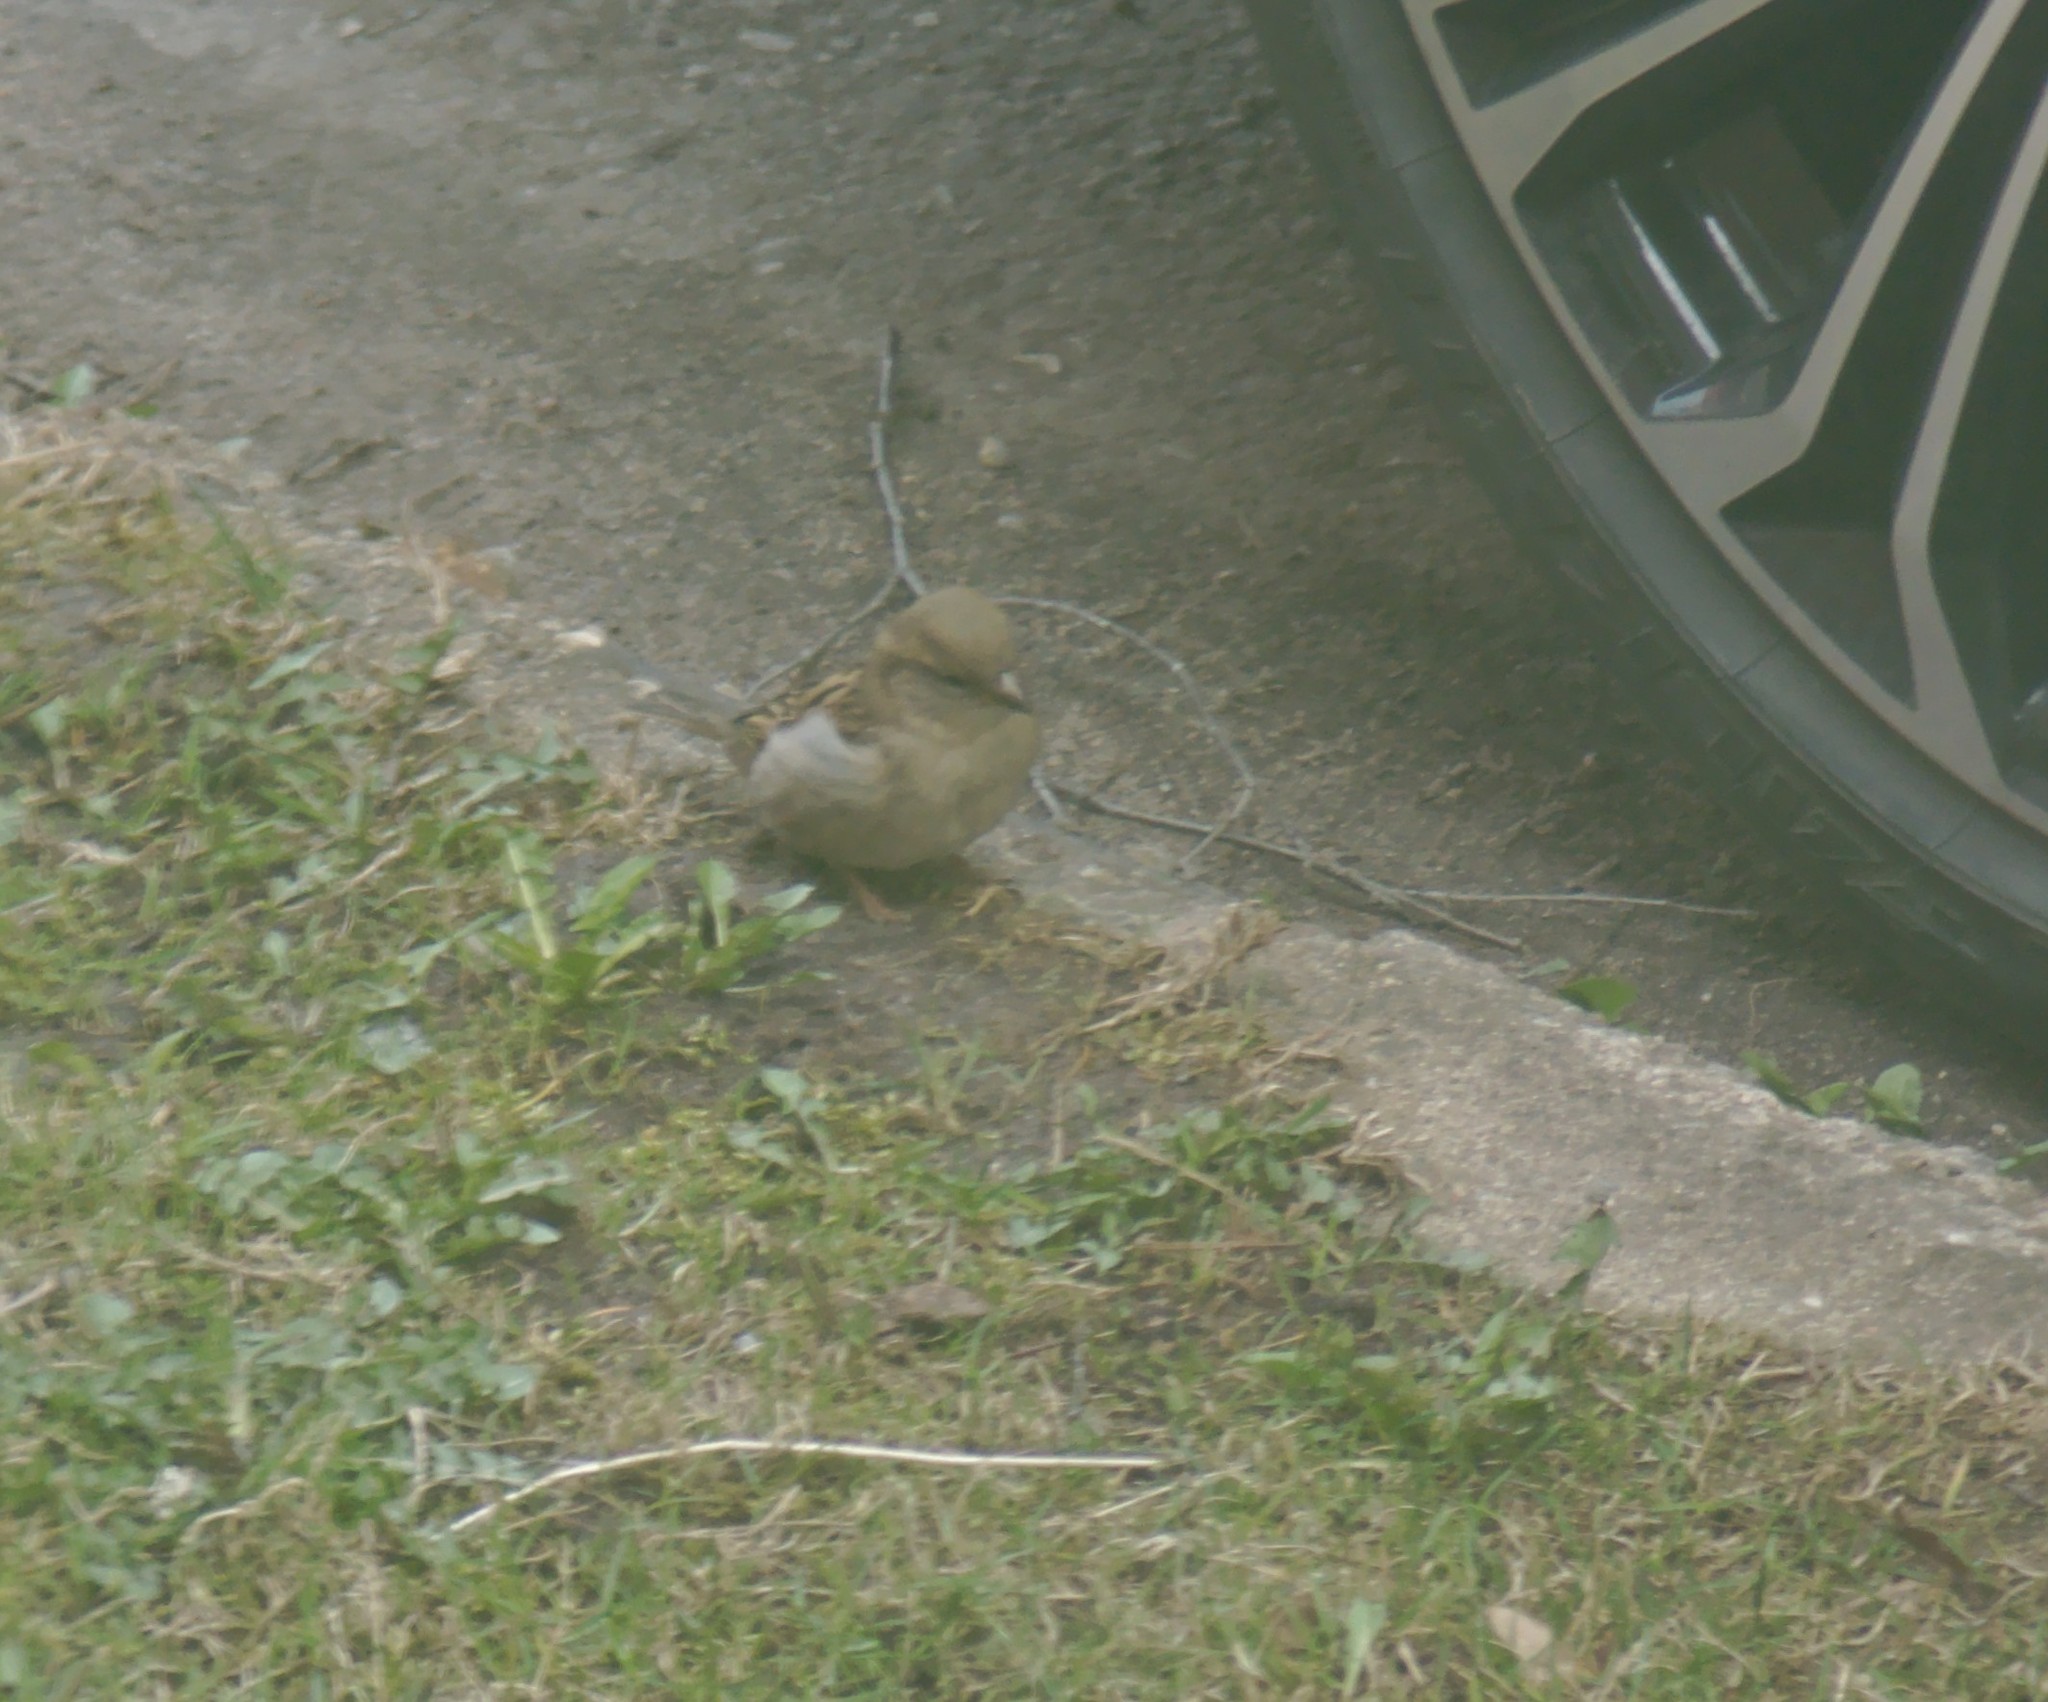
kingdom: Animalia
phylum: Chordata
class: Aves
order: Passeriformes
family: Passeridae
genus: Passer
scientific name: Passer domesticus
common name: House sparrow
